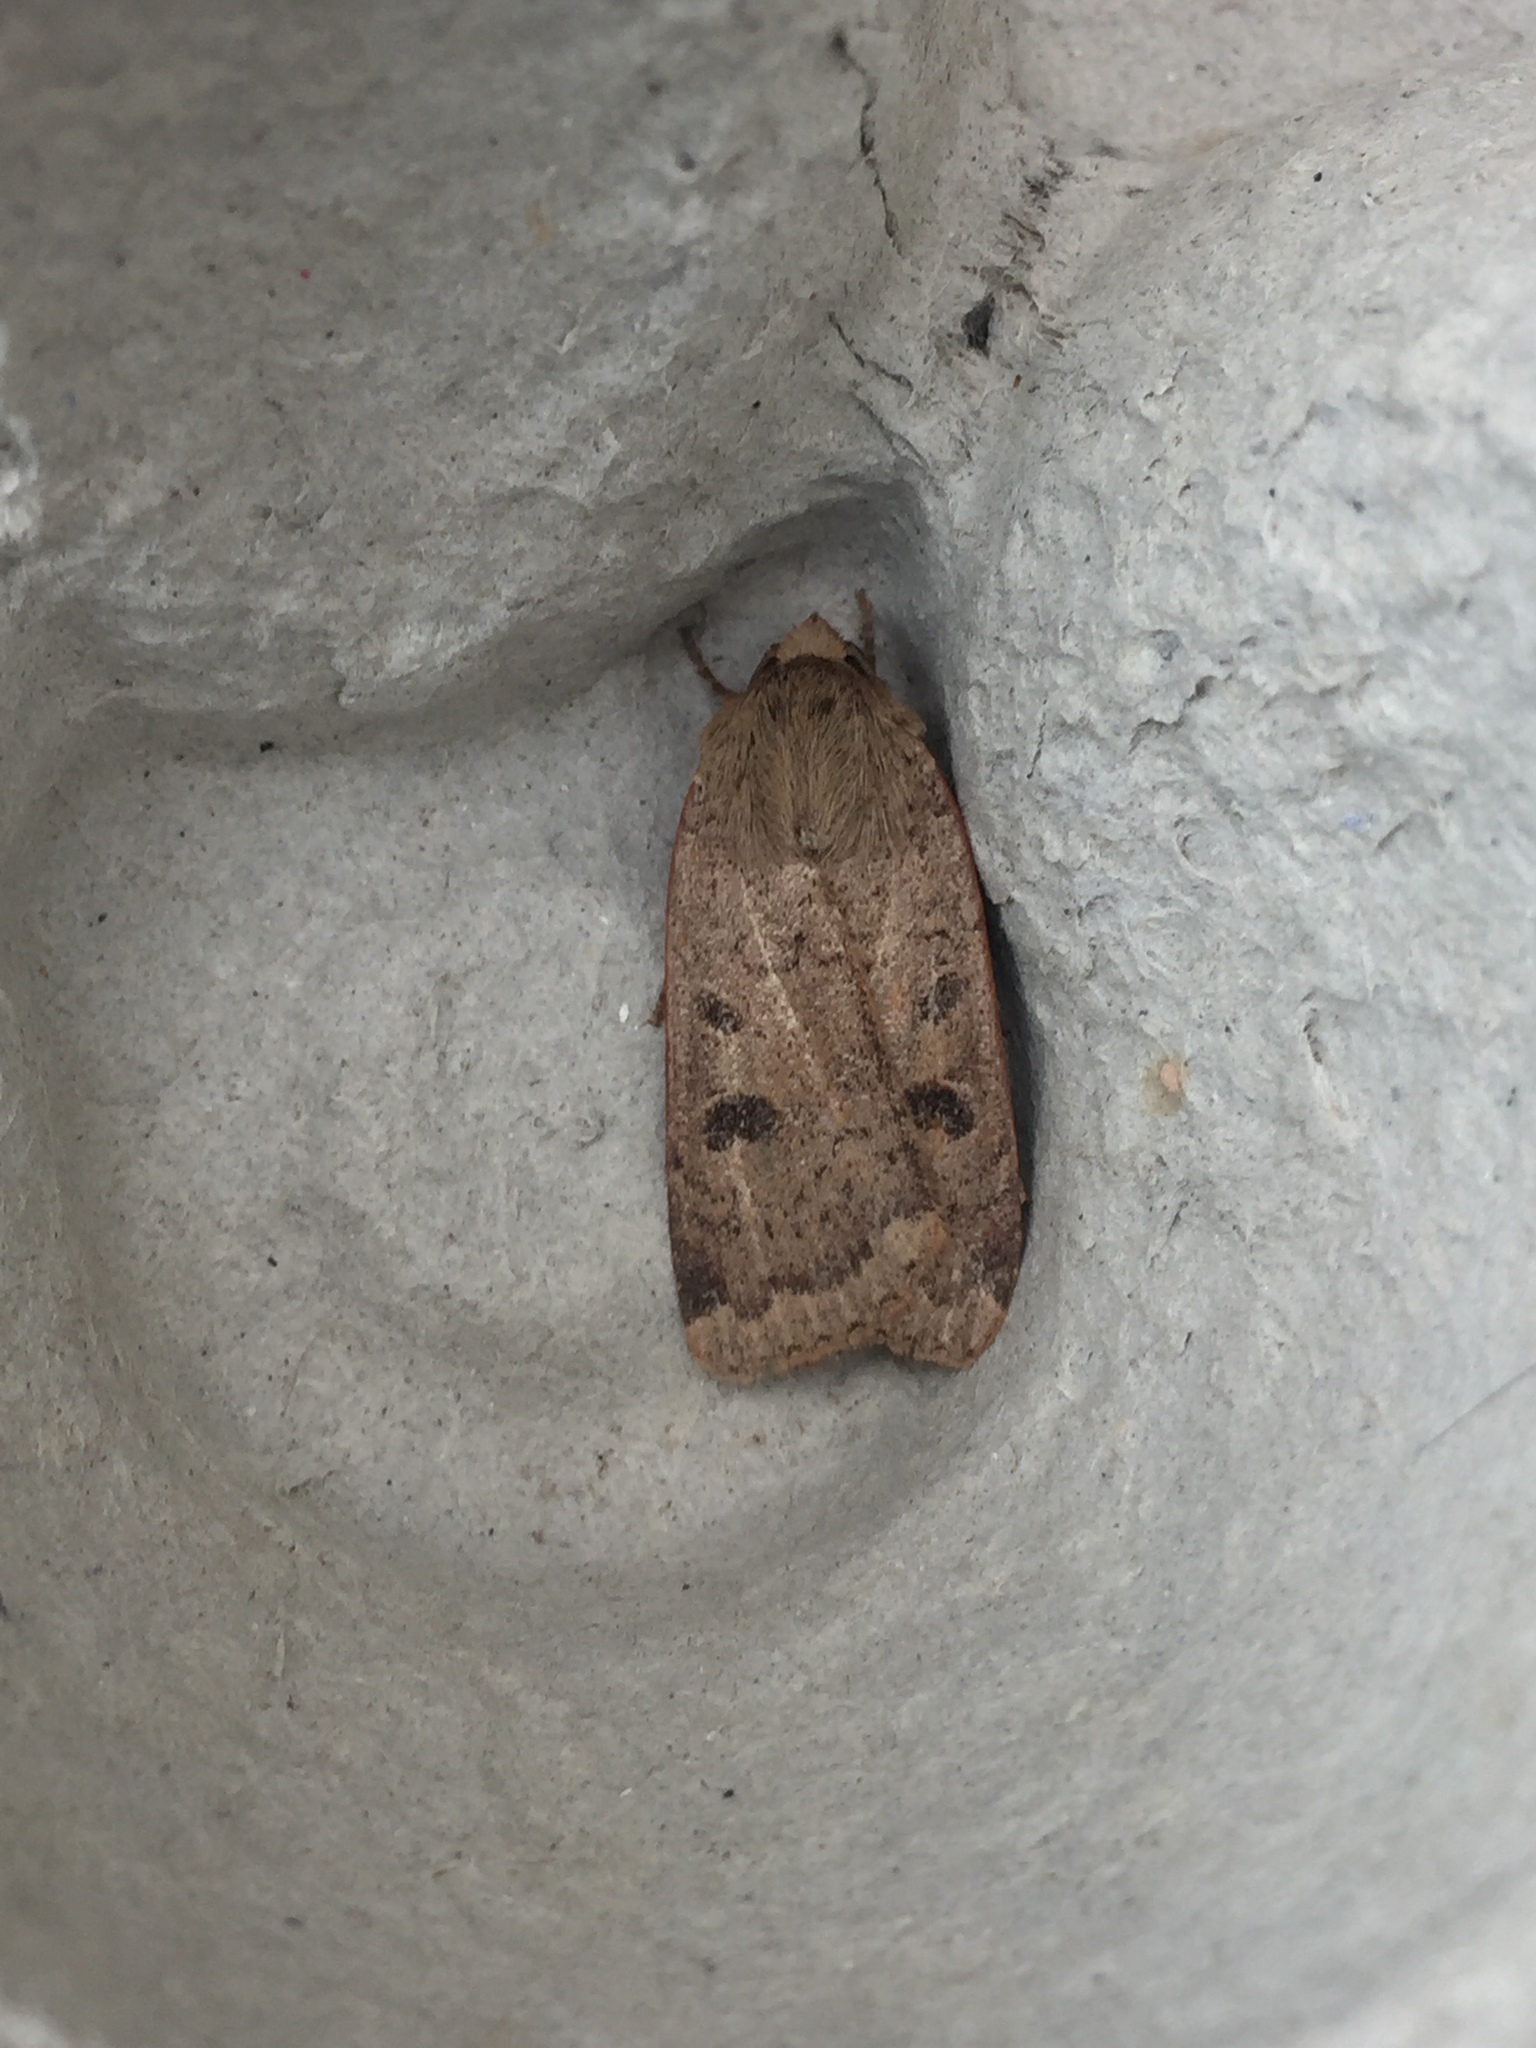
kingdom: Animalia
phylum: Arthropoda
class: Insecta
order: Lepidoptera
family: Noctuidae
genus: Noctua
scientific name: Noctua comes
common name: Lesser yellow underwing
